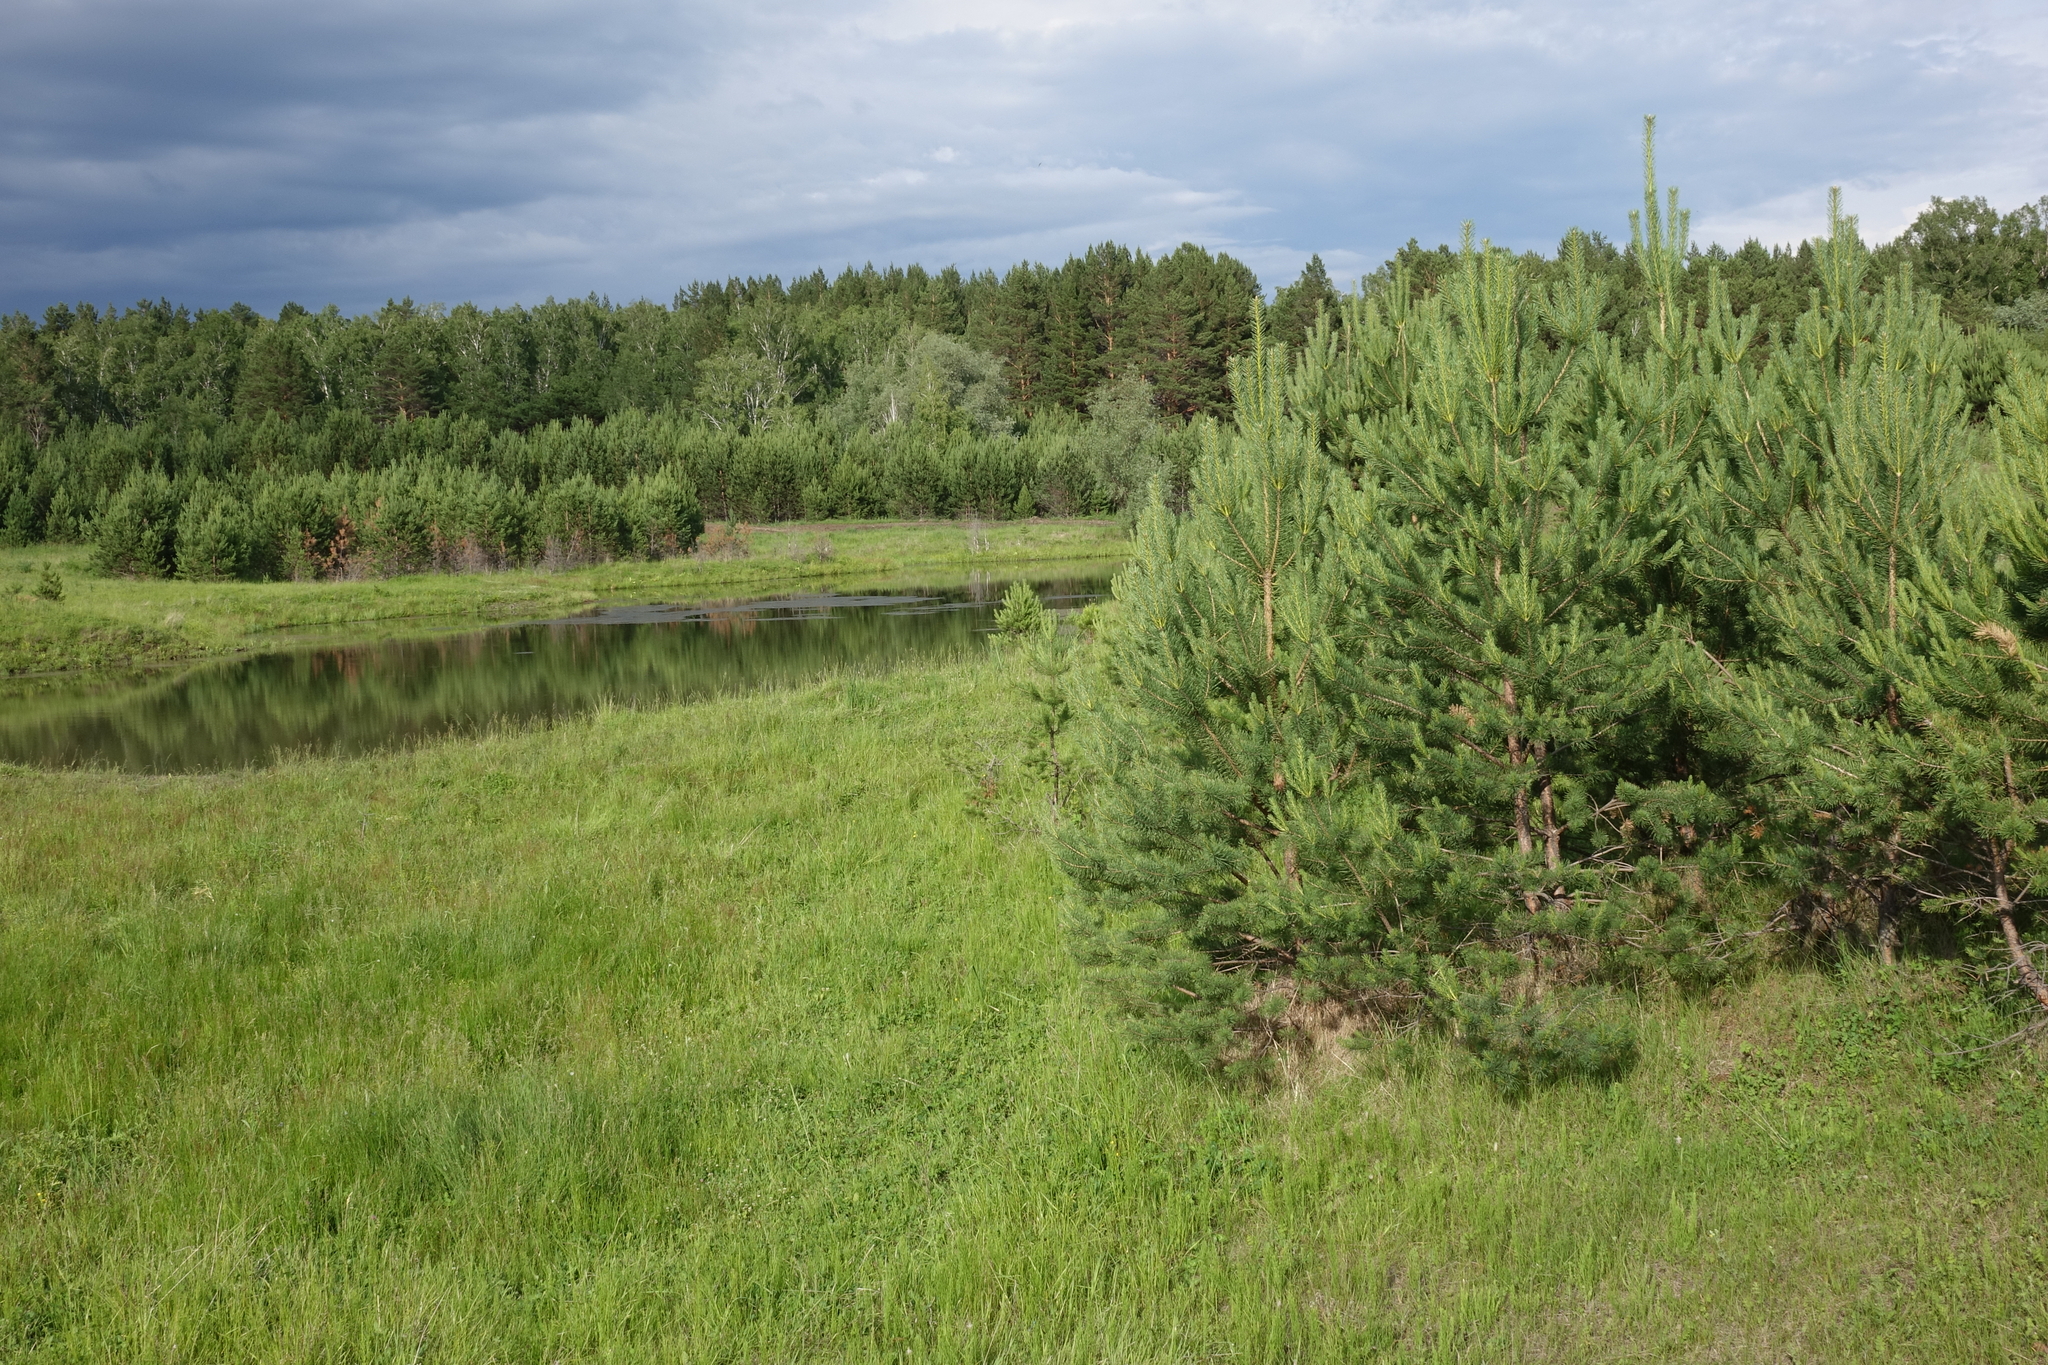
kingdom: Plantae
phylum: Tracheophyta
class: Pinopsida
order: Pinales
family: Pinaceae
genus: Pinus
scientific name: Pinus sylvestris
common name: Scots pine
